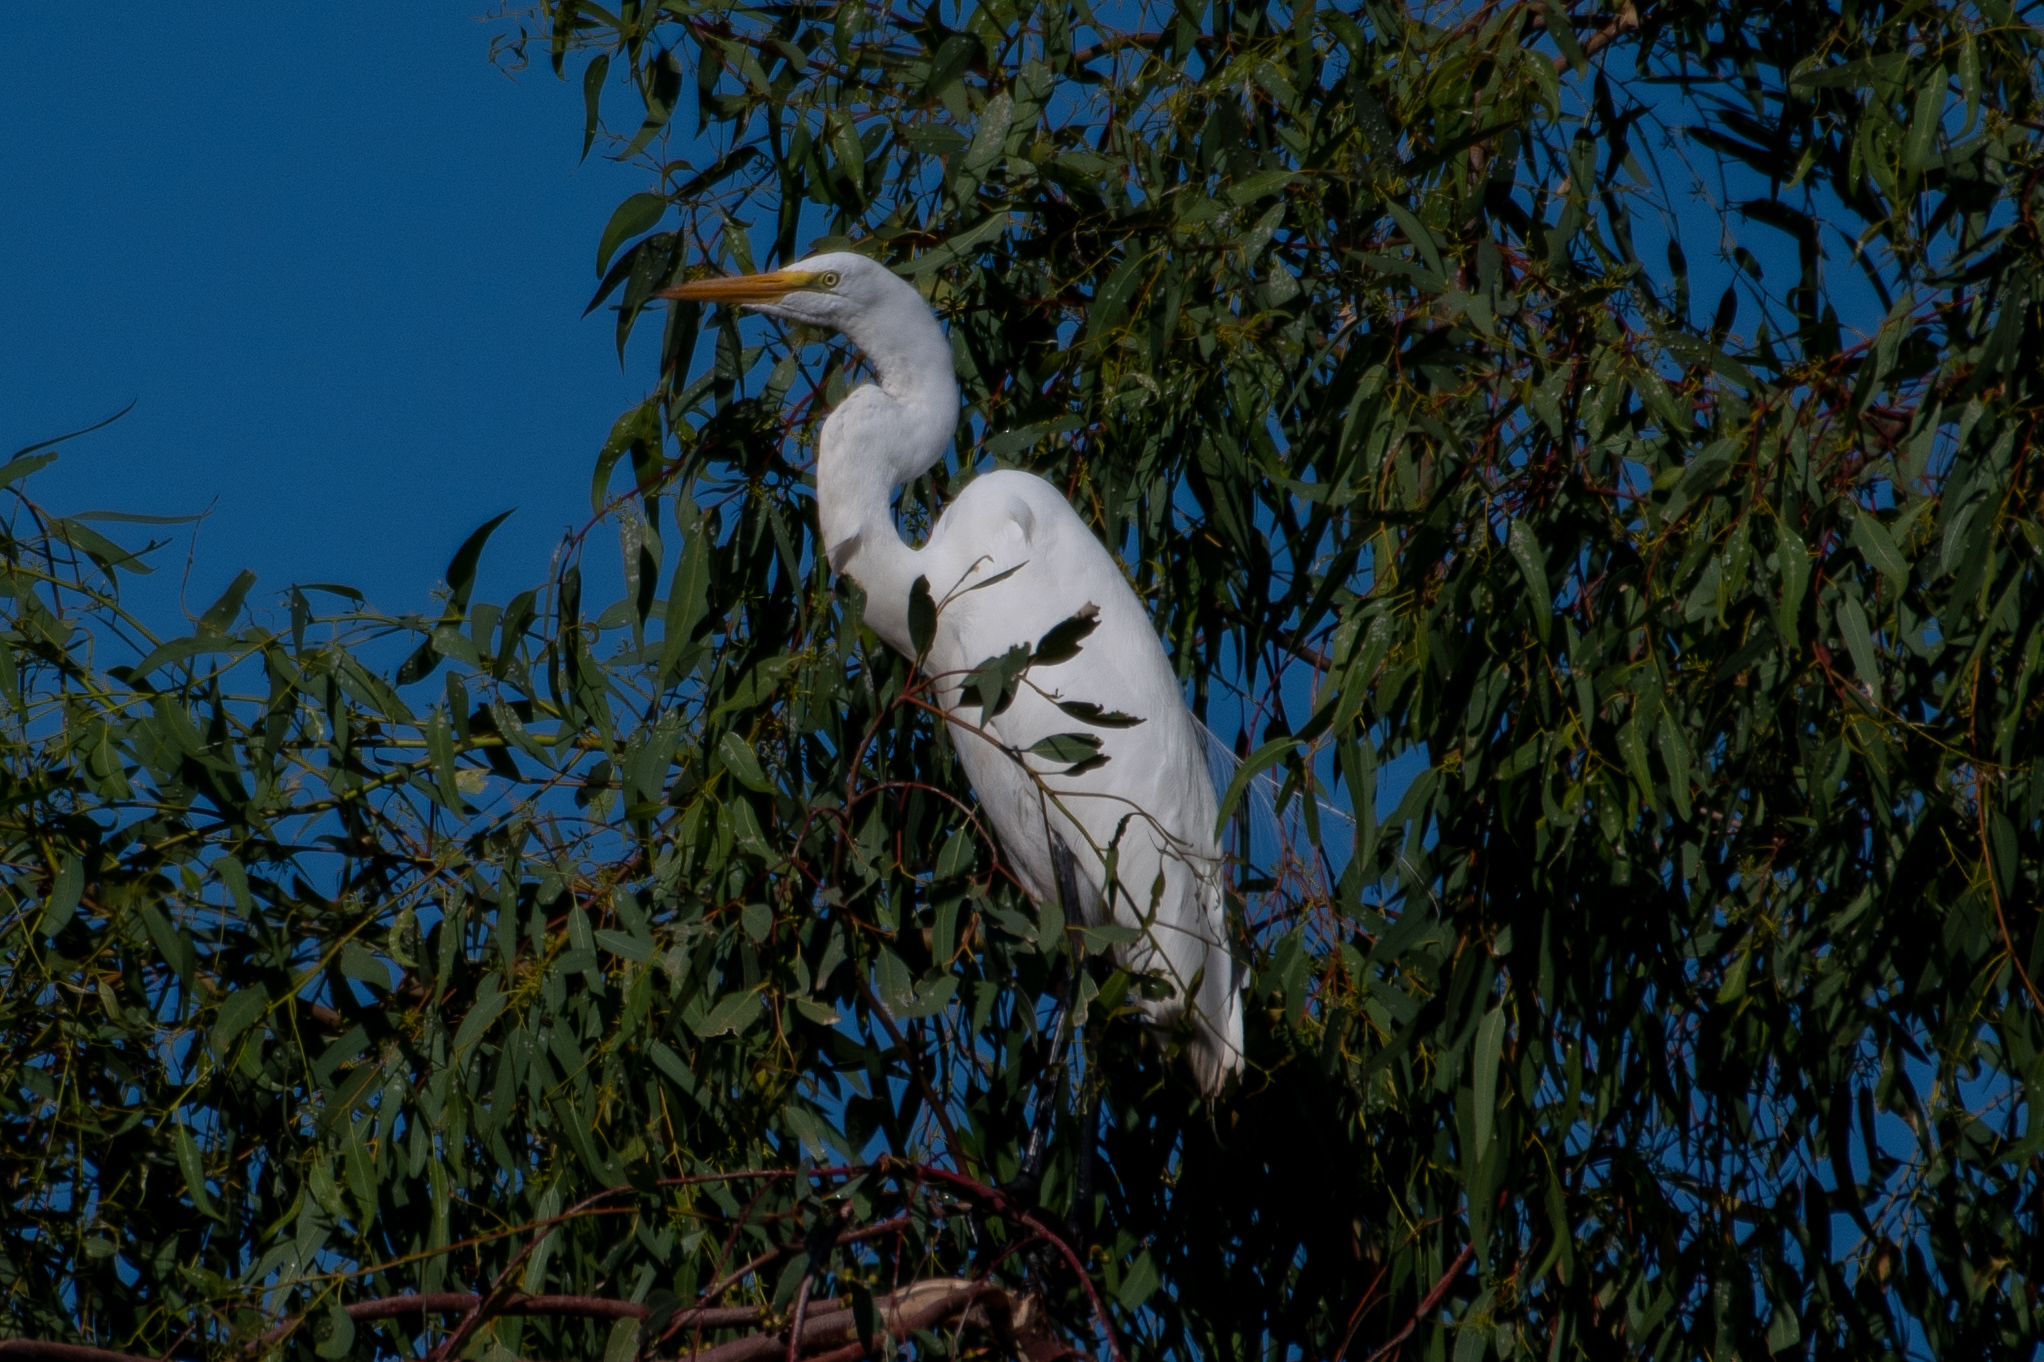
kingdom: Animalia
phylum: Chordata
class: Aves
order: Pelecaniformes
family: Ardeidae
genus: Ardea
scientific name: Ardea alba
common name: Great egret
